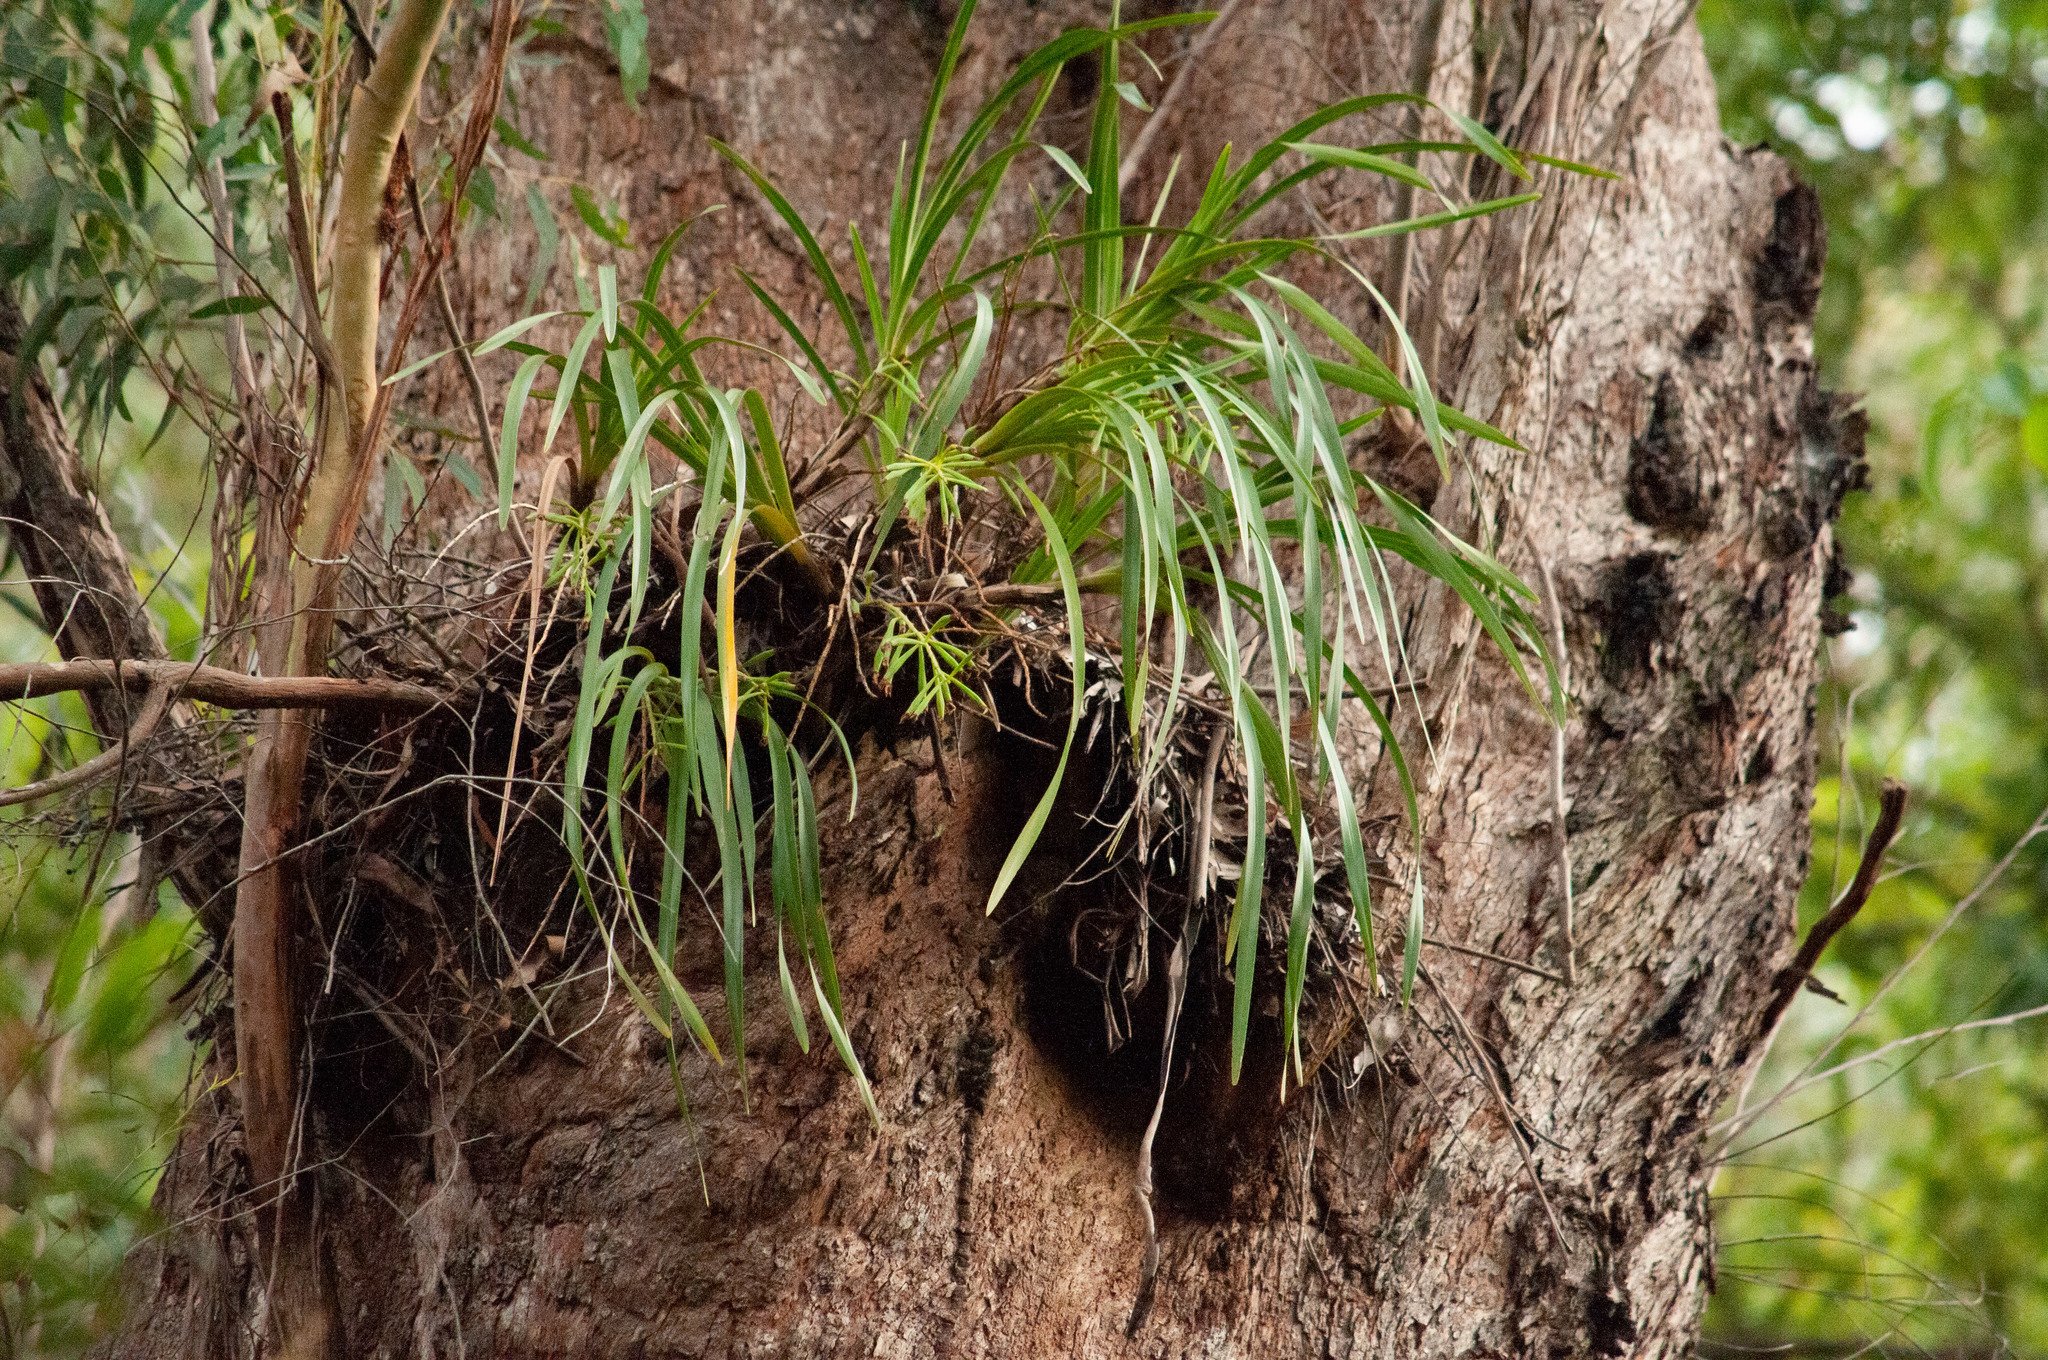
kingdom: Plantae
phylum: Tracheophyta
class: Liliopsida
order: Asparagales
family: Orchidaceae
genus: Cymbidium
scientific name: Cymbidium suave
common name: Snake orchid
